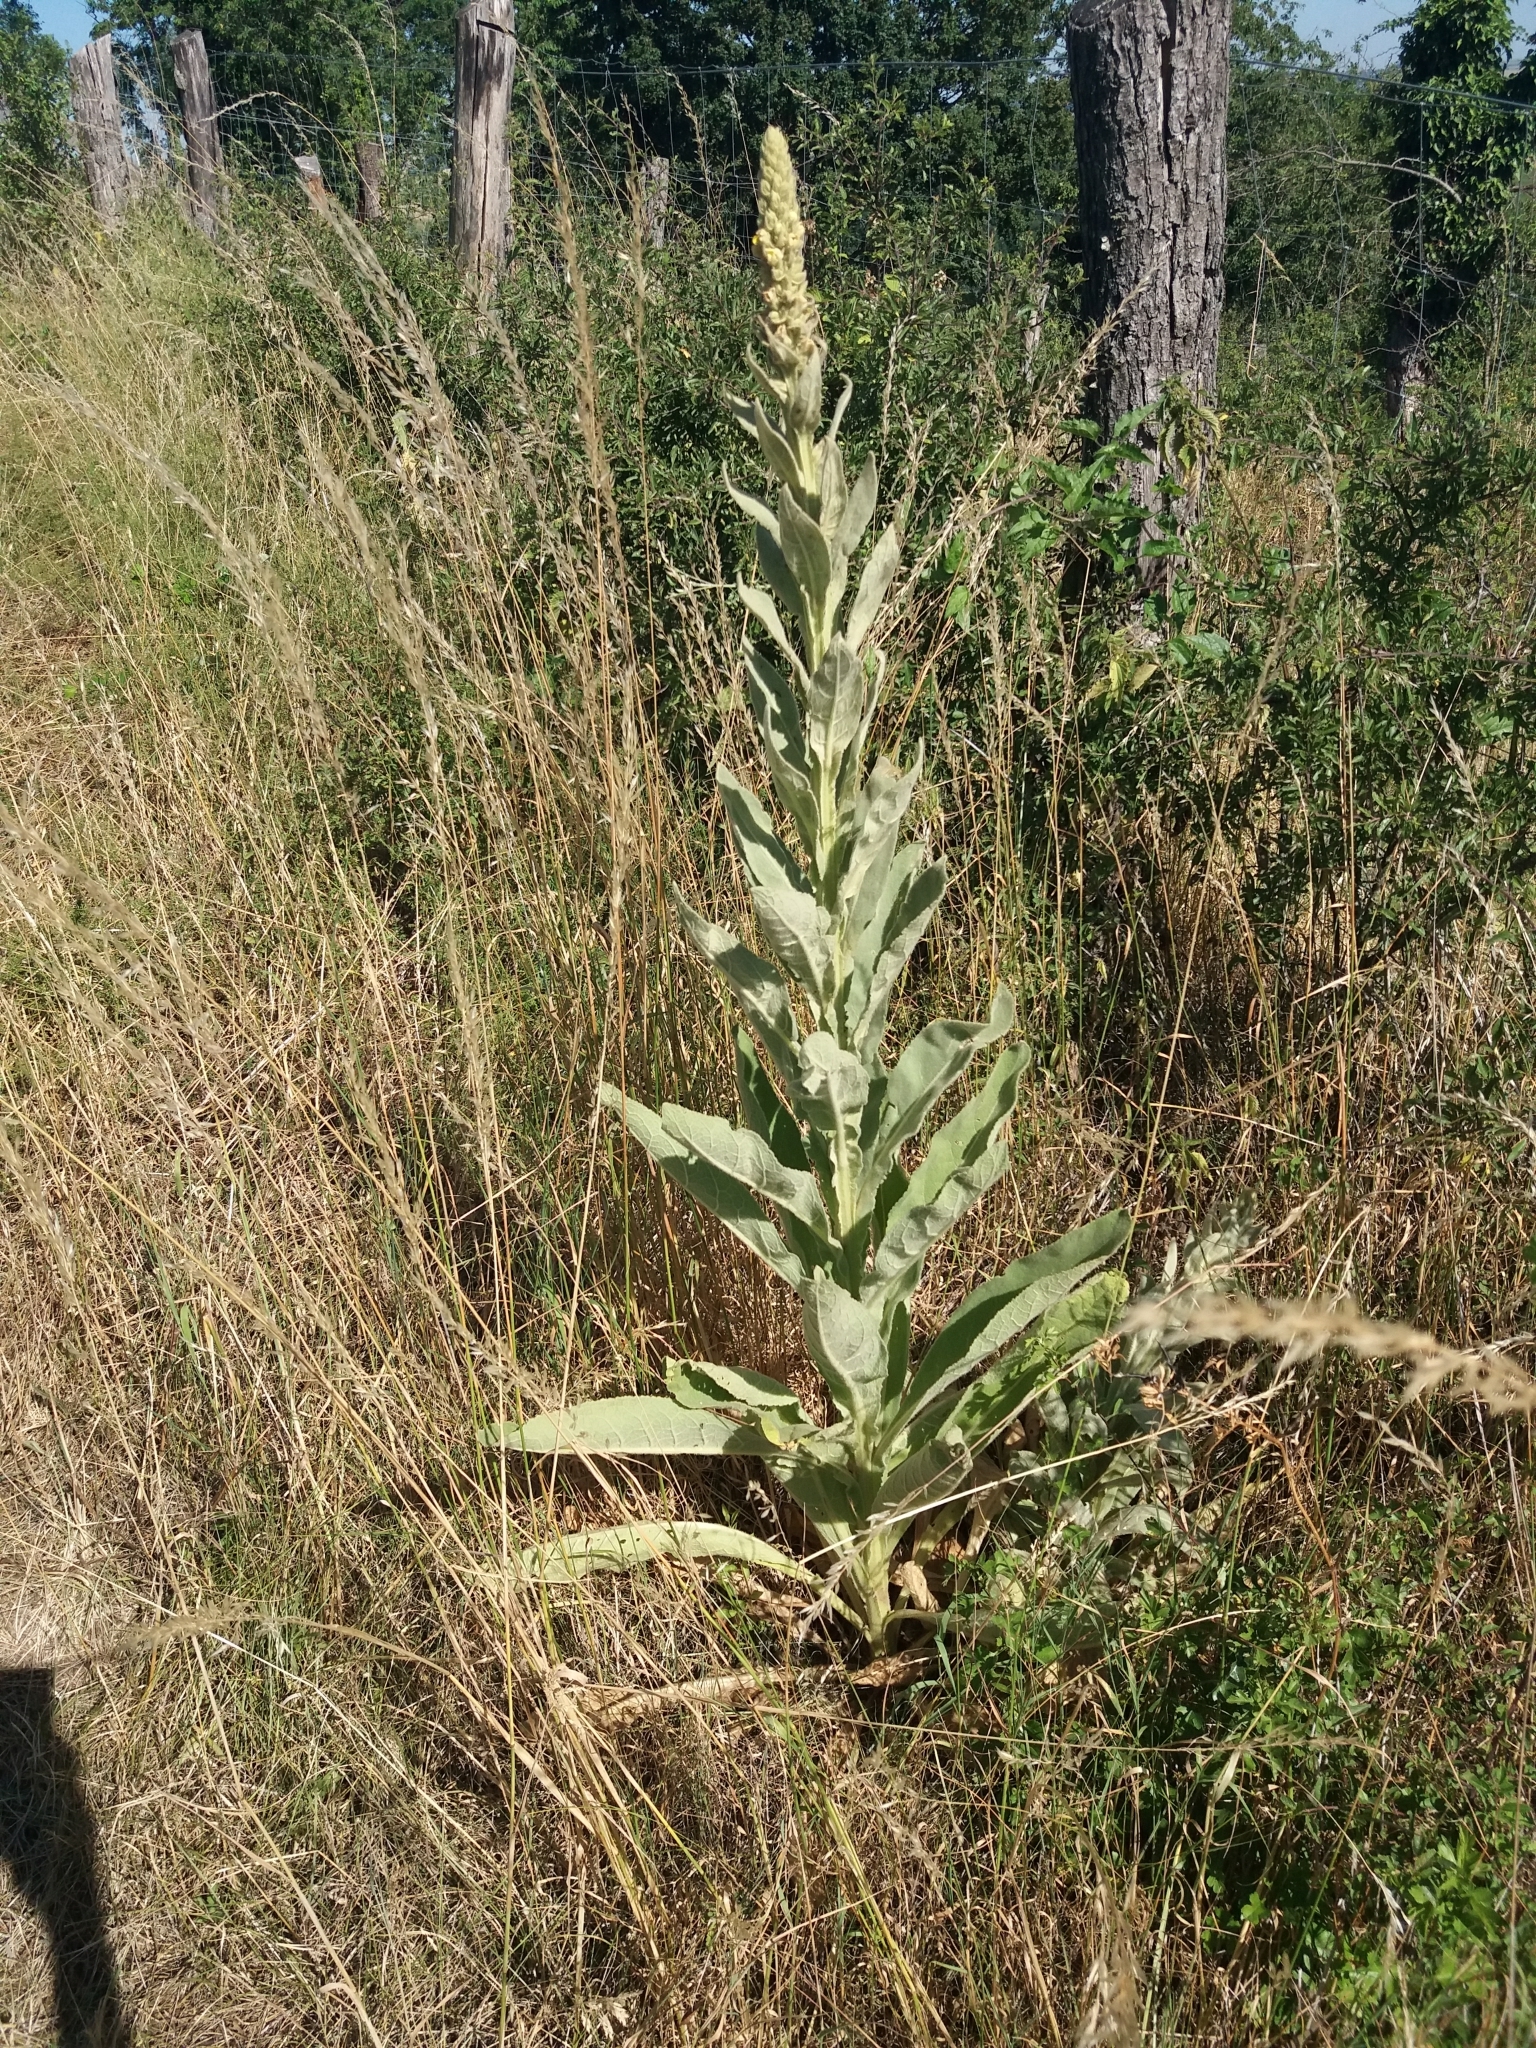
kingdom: Plantae
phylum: Tracheophyta
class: Magnoliopsida
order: Lamiales
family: Scrophulariaceae
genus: Verbascum
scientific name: Verbascum thapsus
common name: Common mullein
